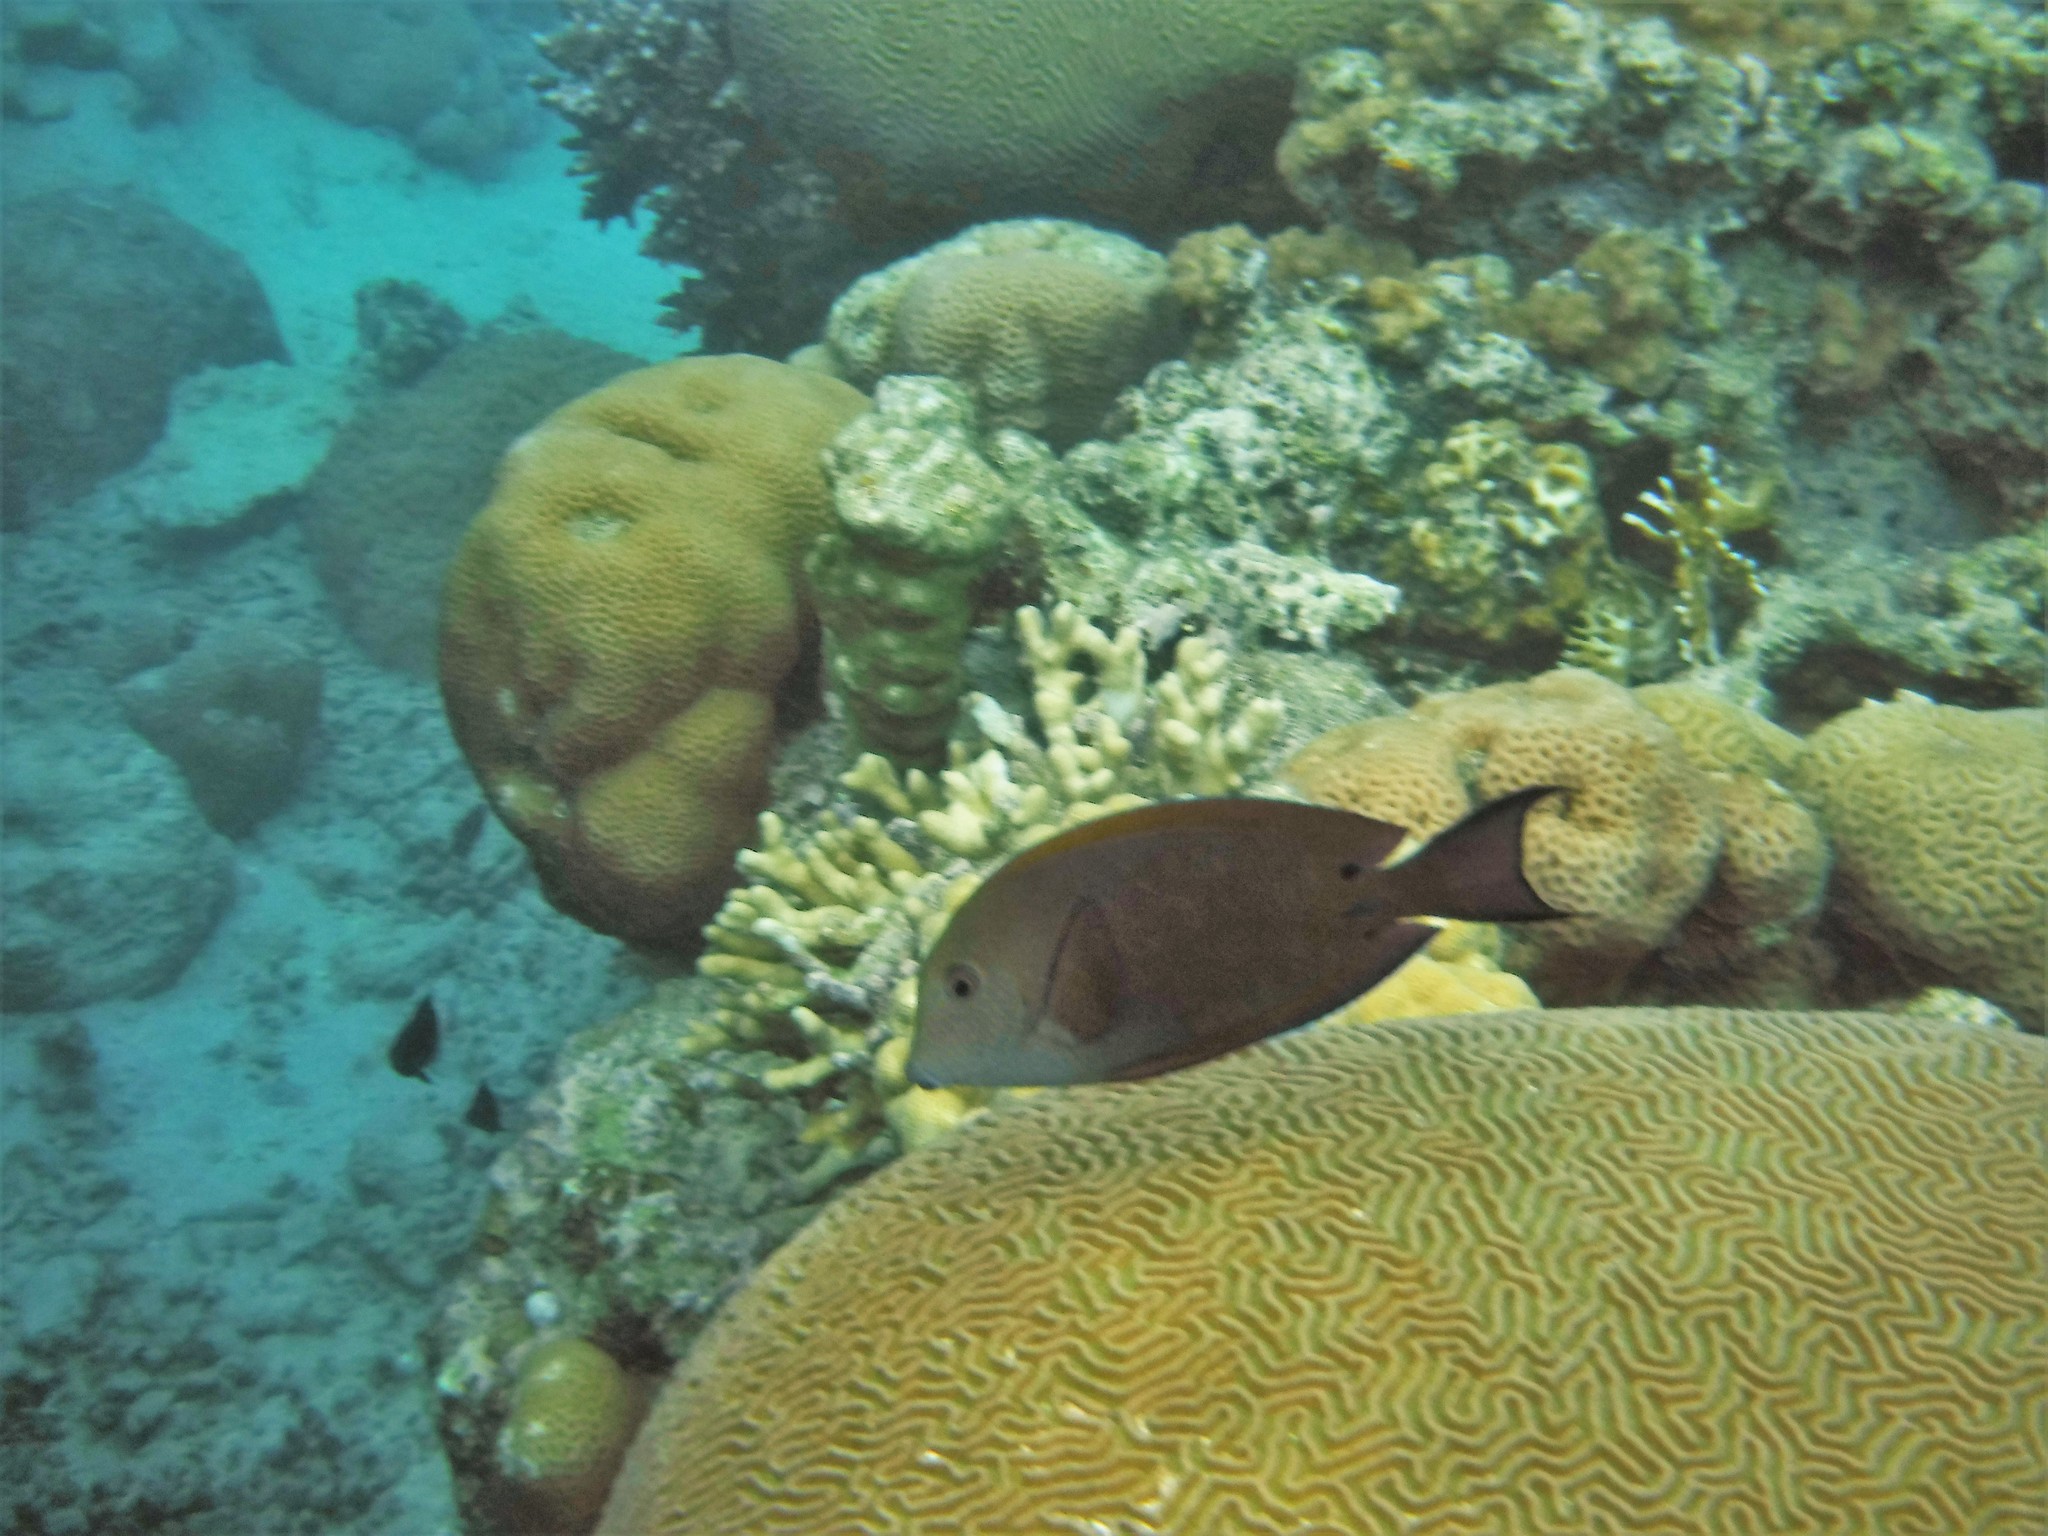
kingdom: Animalia
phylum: Chordata
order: Perciformes
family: Acanthuridae
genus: Acanthurus
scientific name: Acanthurus nigrofuscus
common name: Blackspot surgeonfish
